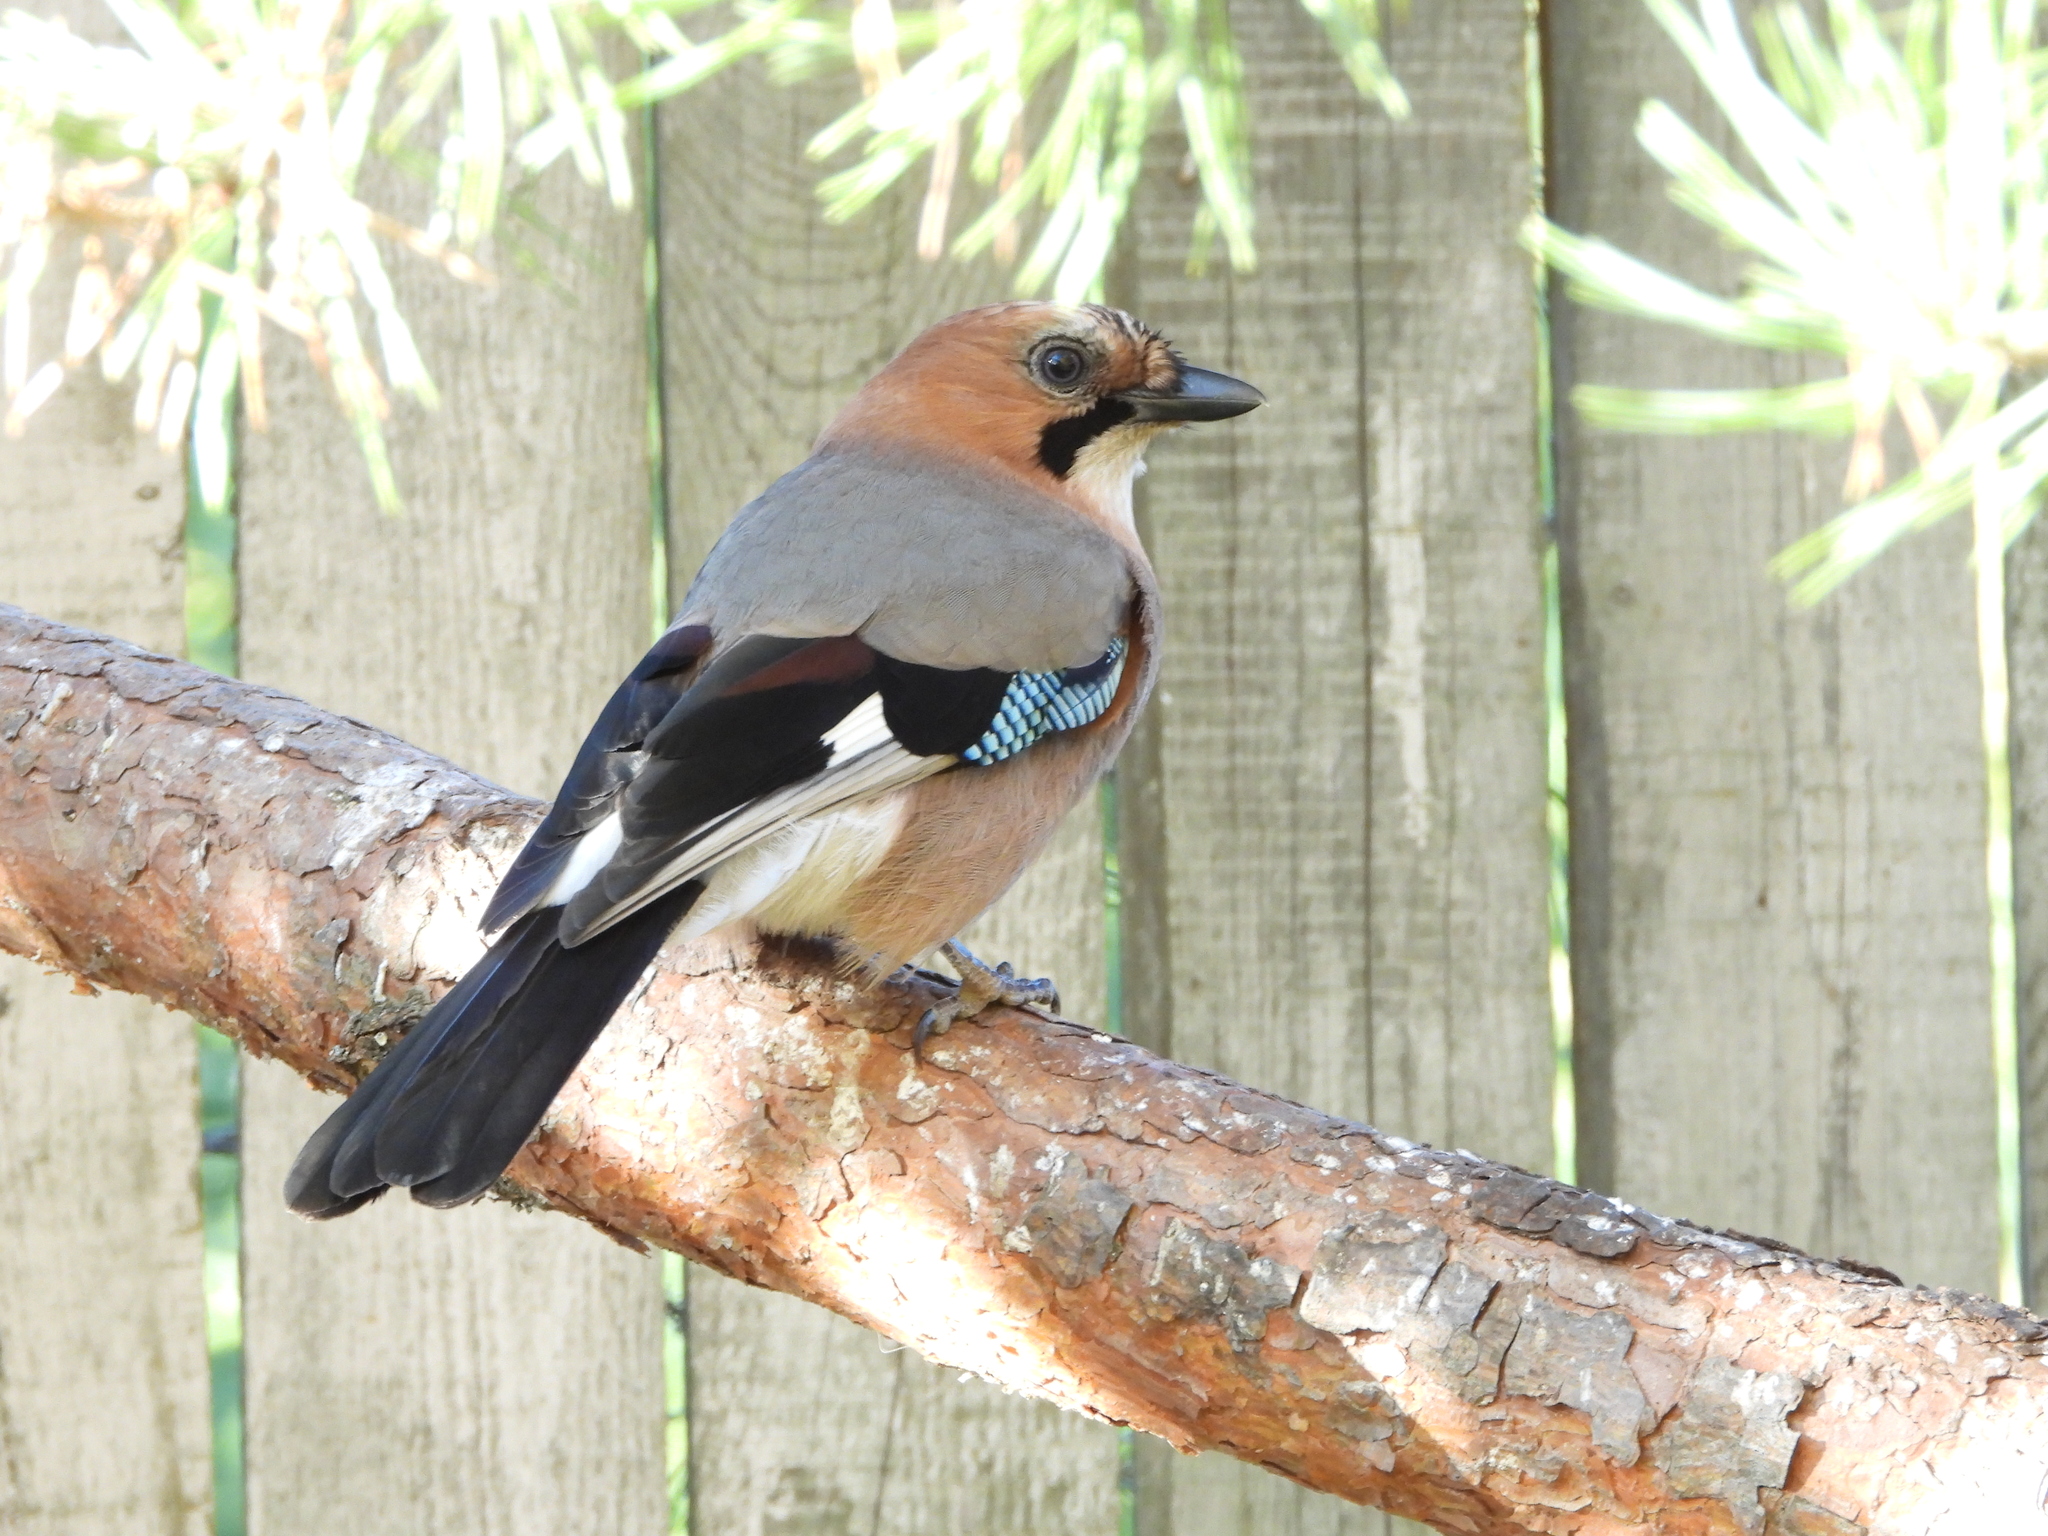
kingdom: Animalia
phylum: Chordata
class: Aves
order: Passeriformes
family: Corvidae
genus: Garrulus
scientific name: Garrulus glandarius
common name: Eurasian jay
